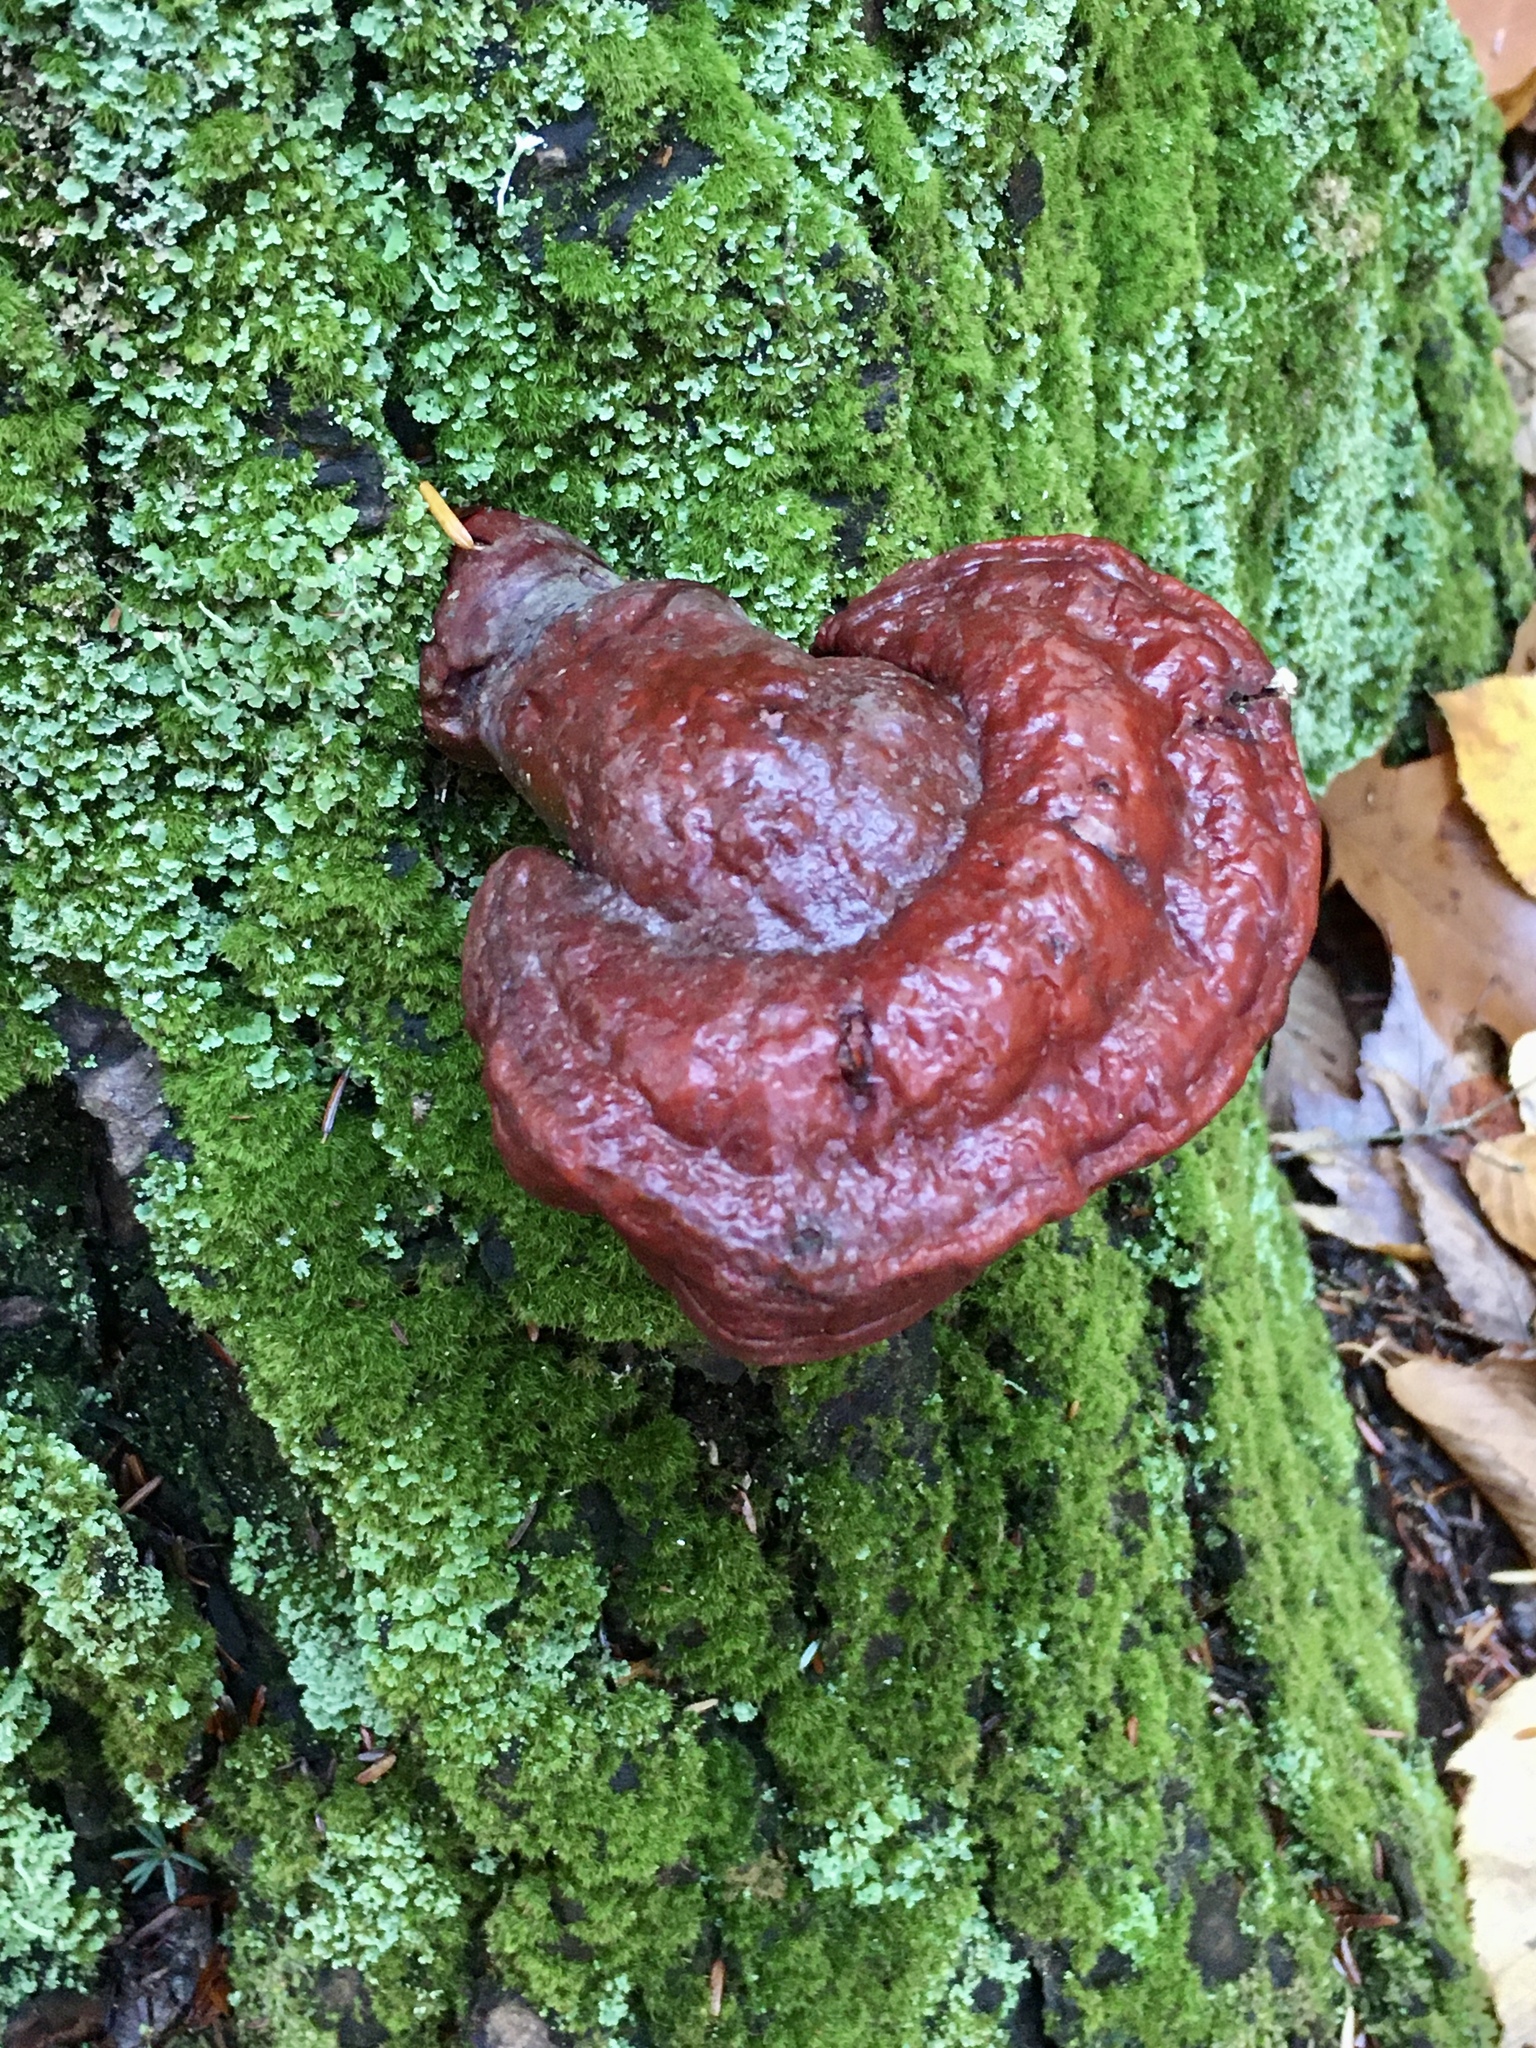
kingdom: Fungi
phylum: Basidiomycota
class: Agaricomycetes
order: Polyporales
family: Polyporaceae
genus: Ganoderma
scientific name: Ganoderma tsugae
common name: Hemlock varnish shelf
